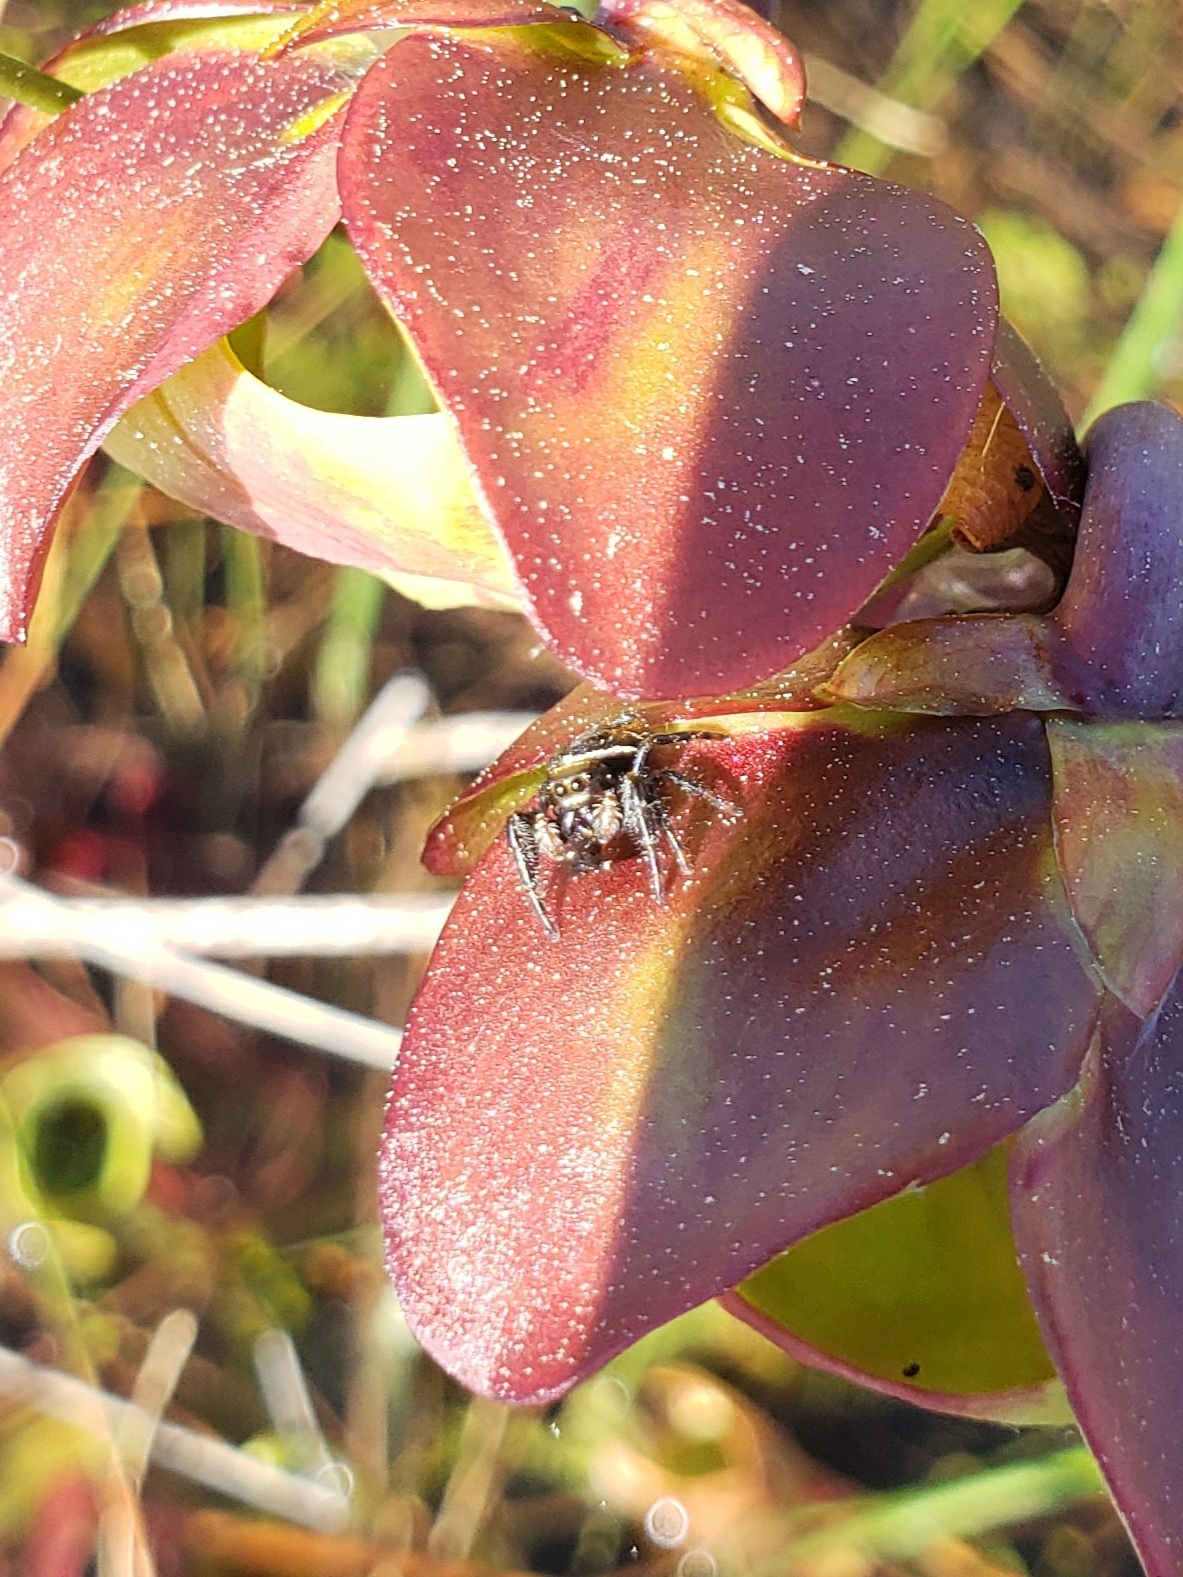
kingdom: Animalia
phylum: Arthropoda
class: Arachnida
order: Araneae
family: Salticidae
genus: Phidippus
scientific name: Phidippus clarus
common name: Brilliant jumping spider
